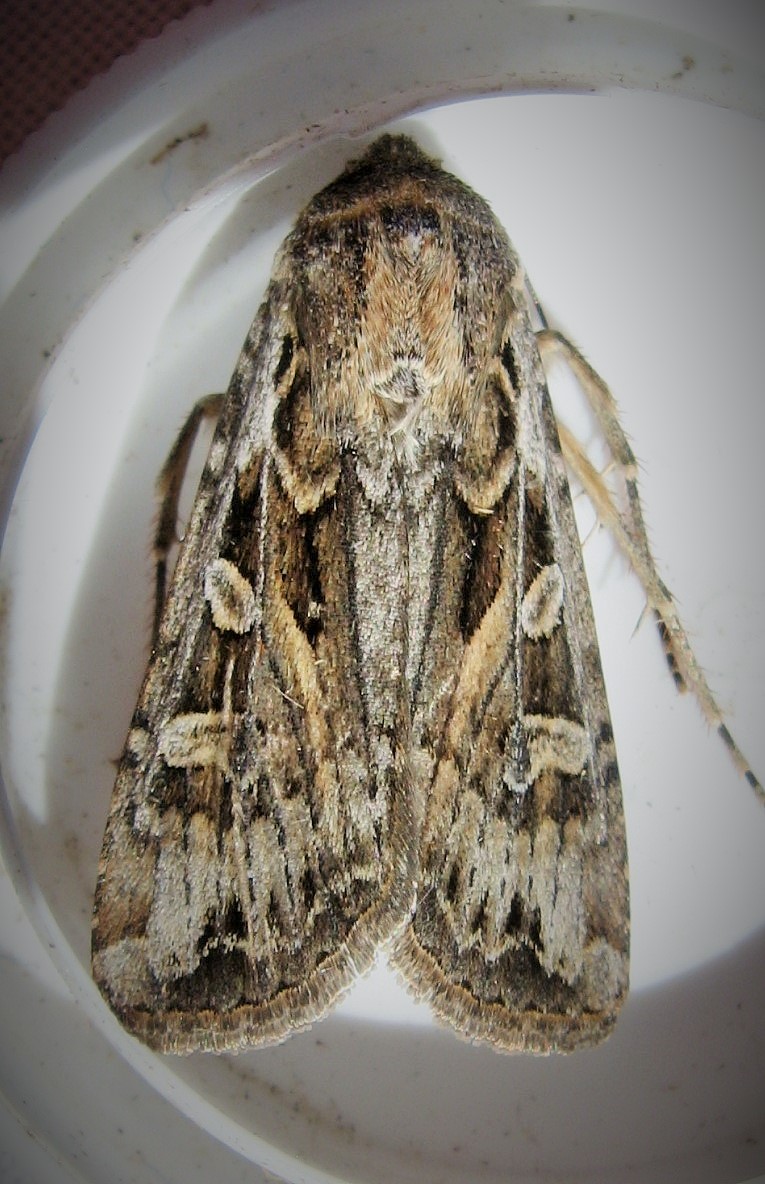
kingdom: Animalia
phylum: Arthropoda
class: Insecta
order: Lepidoptera
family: Noctuidae
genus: Euxoa
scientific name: Euxoa auxiliaris
